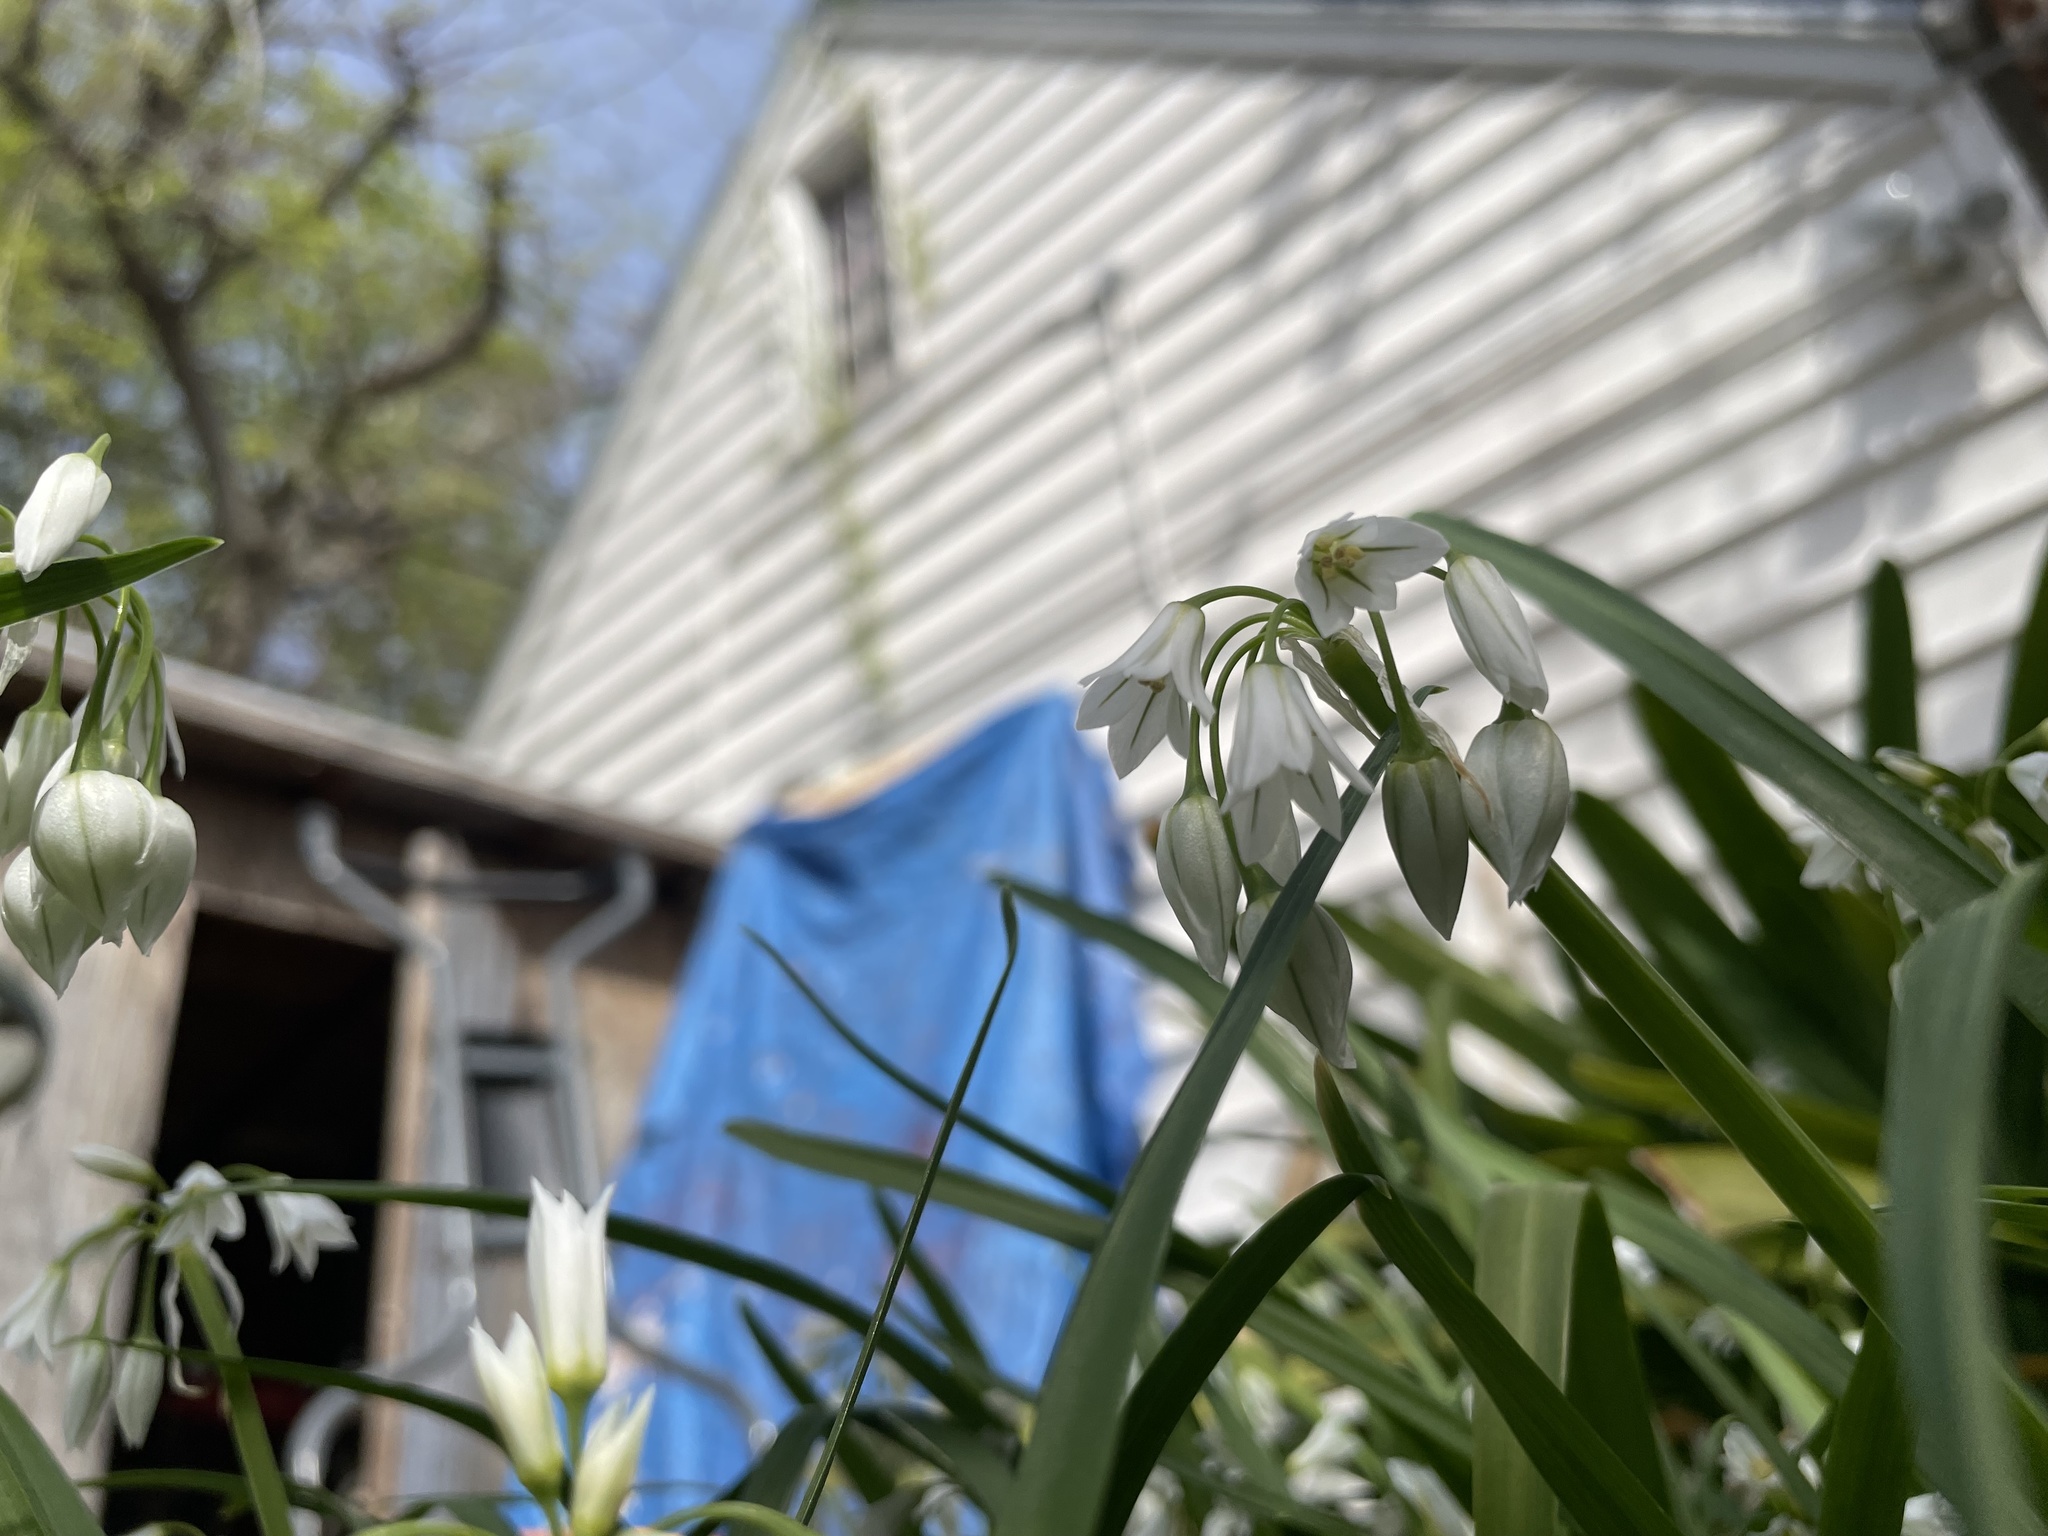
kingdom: Plantae
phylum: Tracheophyta
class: Liliopsida
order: Asparagales
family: Amaryllidaceae
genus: Allium
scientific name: Allium triquetrum
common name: Three-cornered garlic
